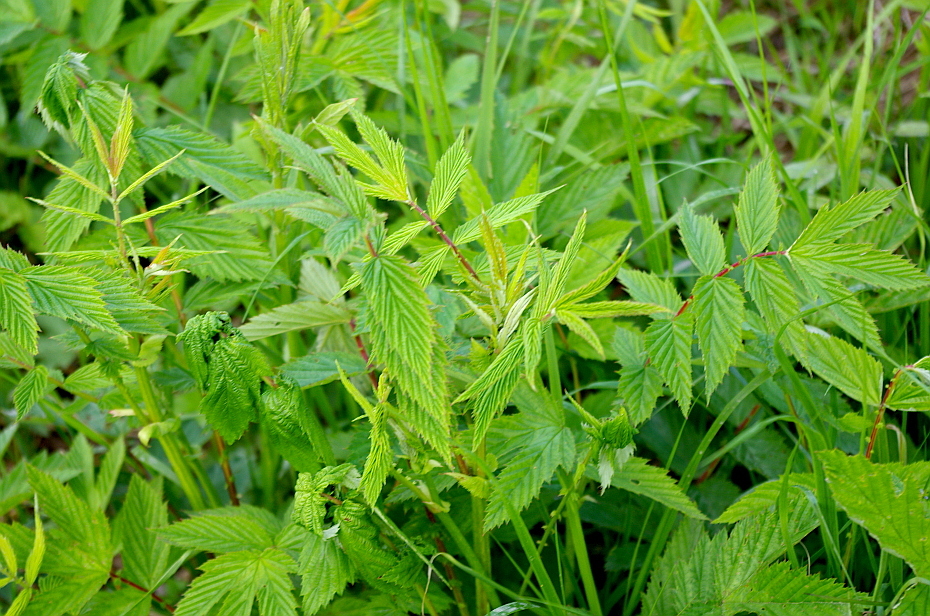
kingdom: Plantae
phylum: Tracheophyta
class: Magnoliopsida
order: Rosales
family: Rosaceae
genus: Filipendula
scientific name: Filipendula ulmaria
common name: Meadowsweet
